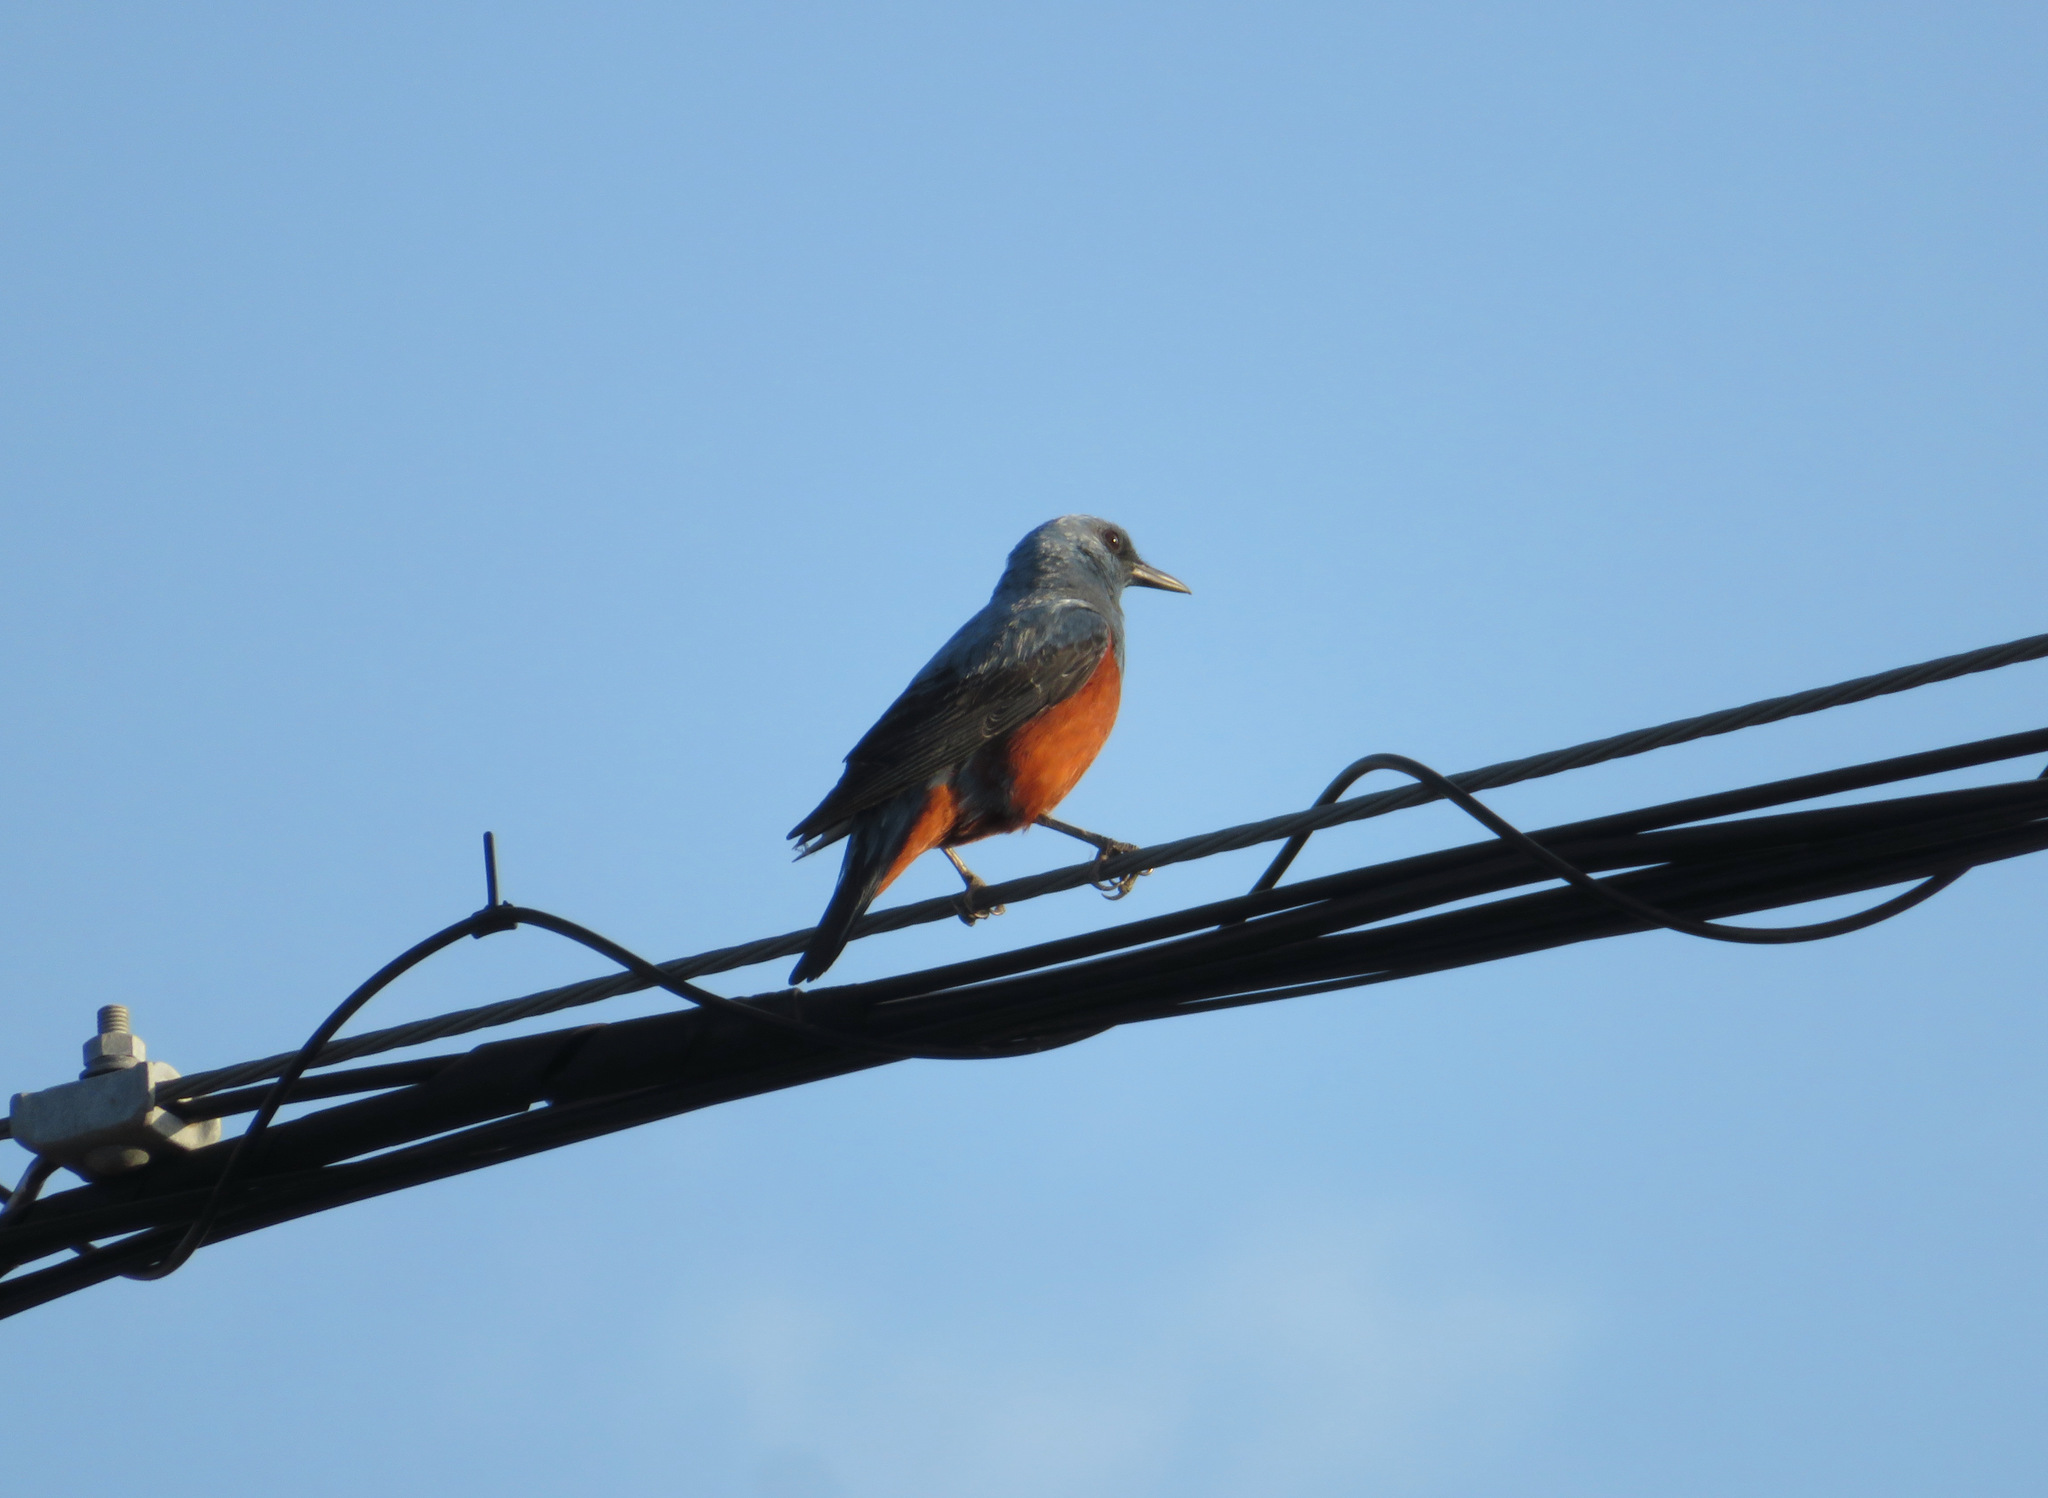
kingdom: Animalia
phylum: Chordata
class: Aves
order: Passeriformes
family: Muscicapidae
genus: Monticola
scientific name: Monticola solitarius
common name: Blue rock thrush
